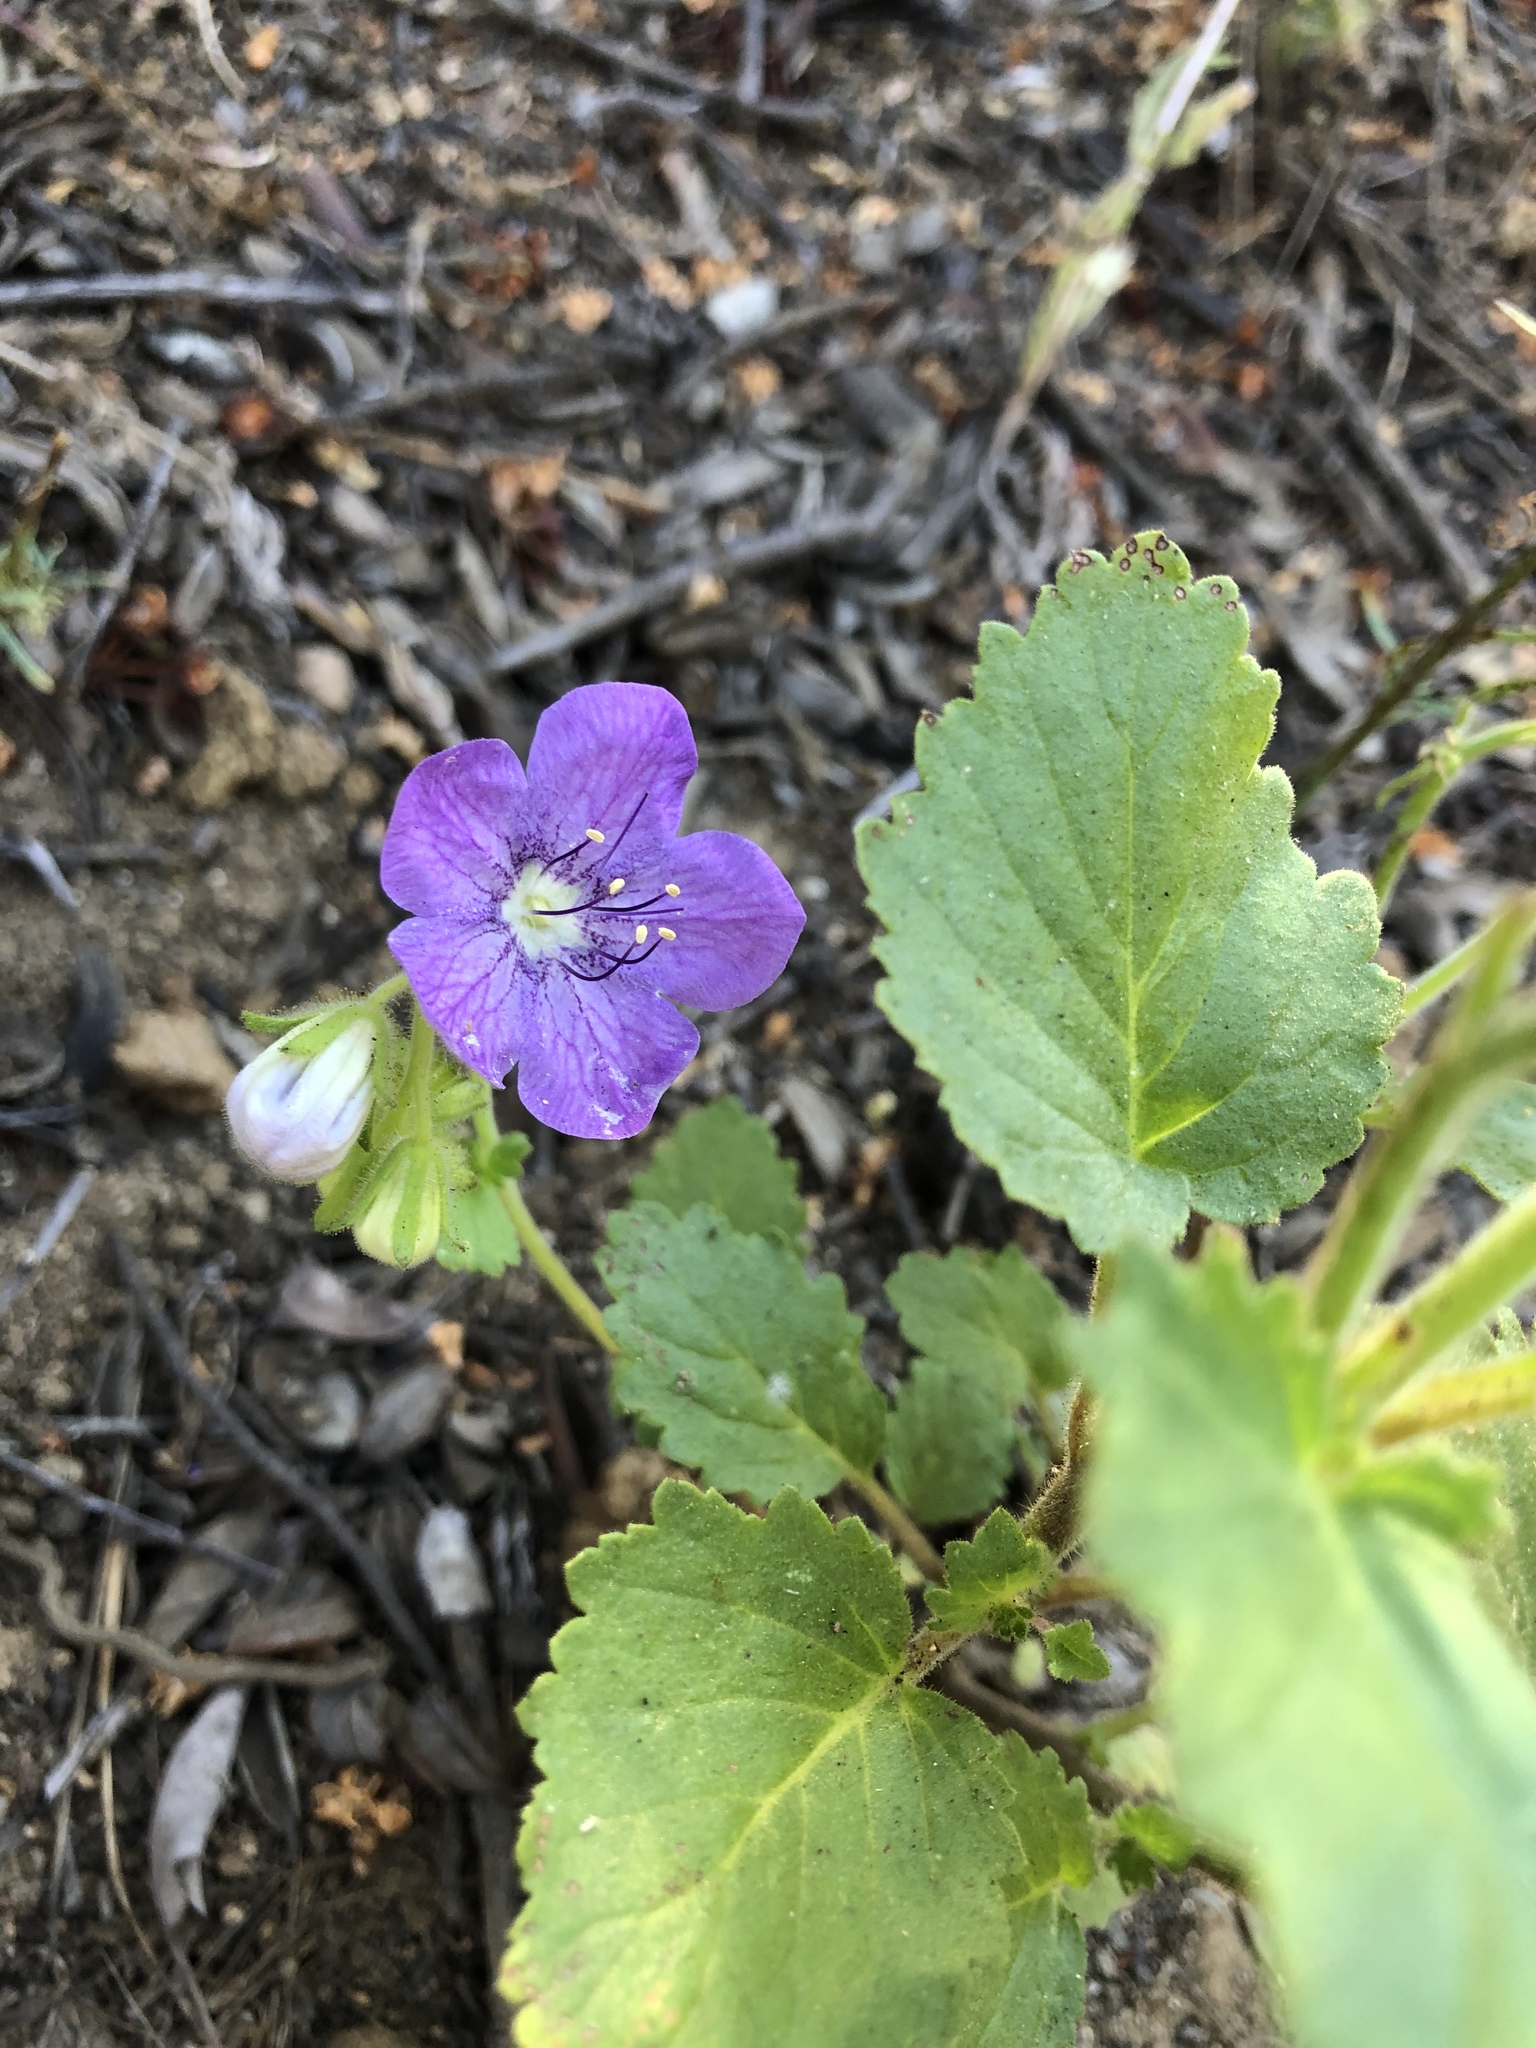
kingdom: Plantae
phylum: Tracheophyta
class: Magnoliopsida
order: Boraginales
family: Hydrophyllaceae
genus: Phacelia
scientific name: Phacelia grandiflora
